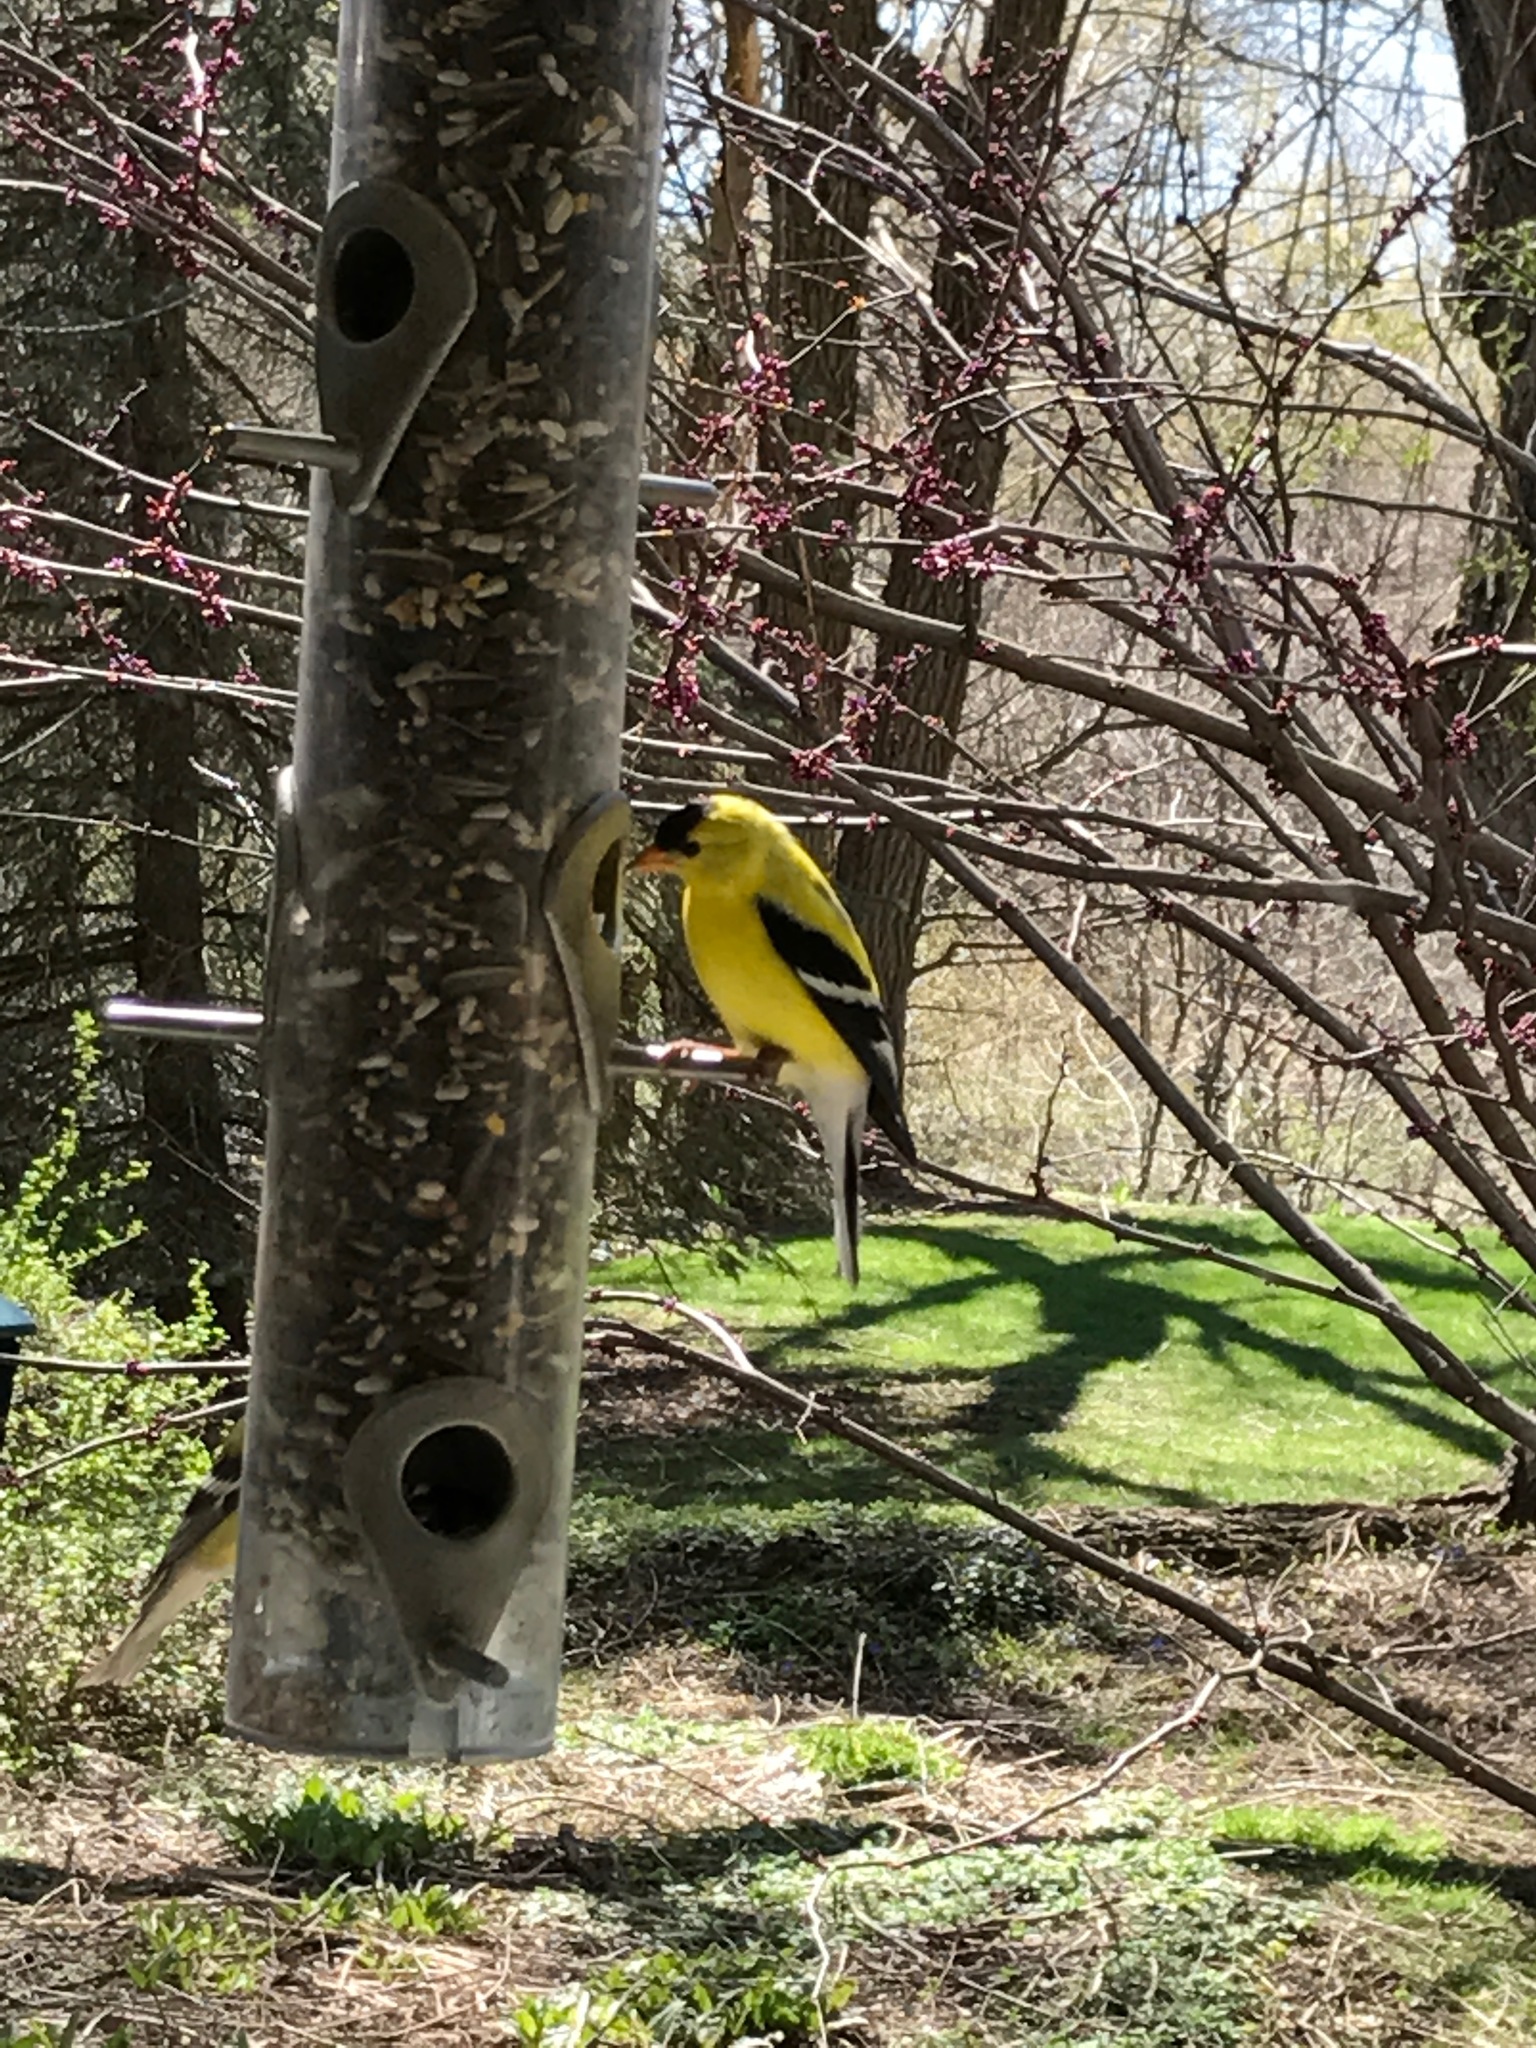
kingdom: Animalia
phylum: Chordata
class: Aves
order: Passeriformes
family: Fringillidae
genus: Spinus
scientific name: Spinus tristis
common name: American goldfinch
